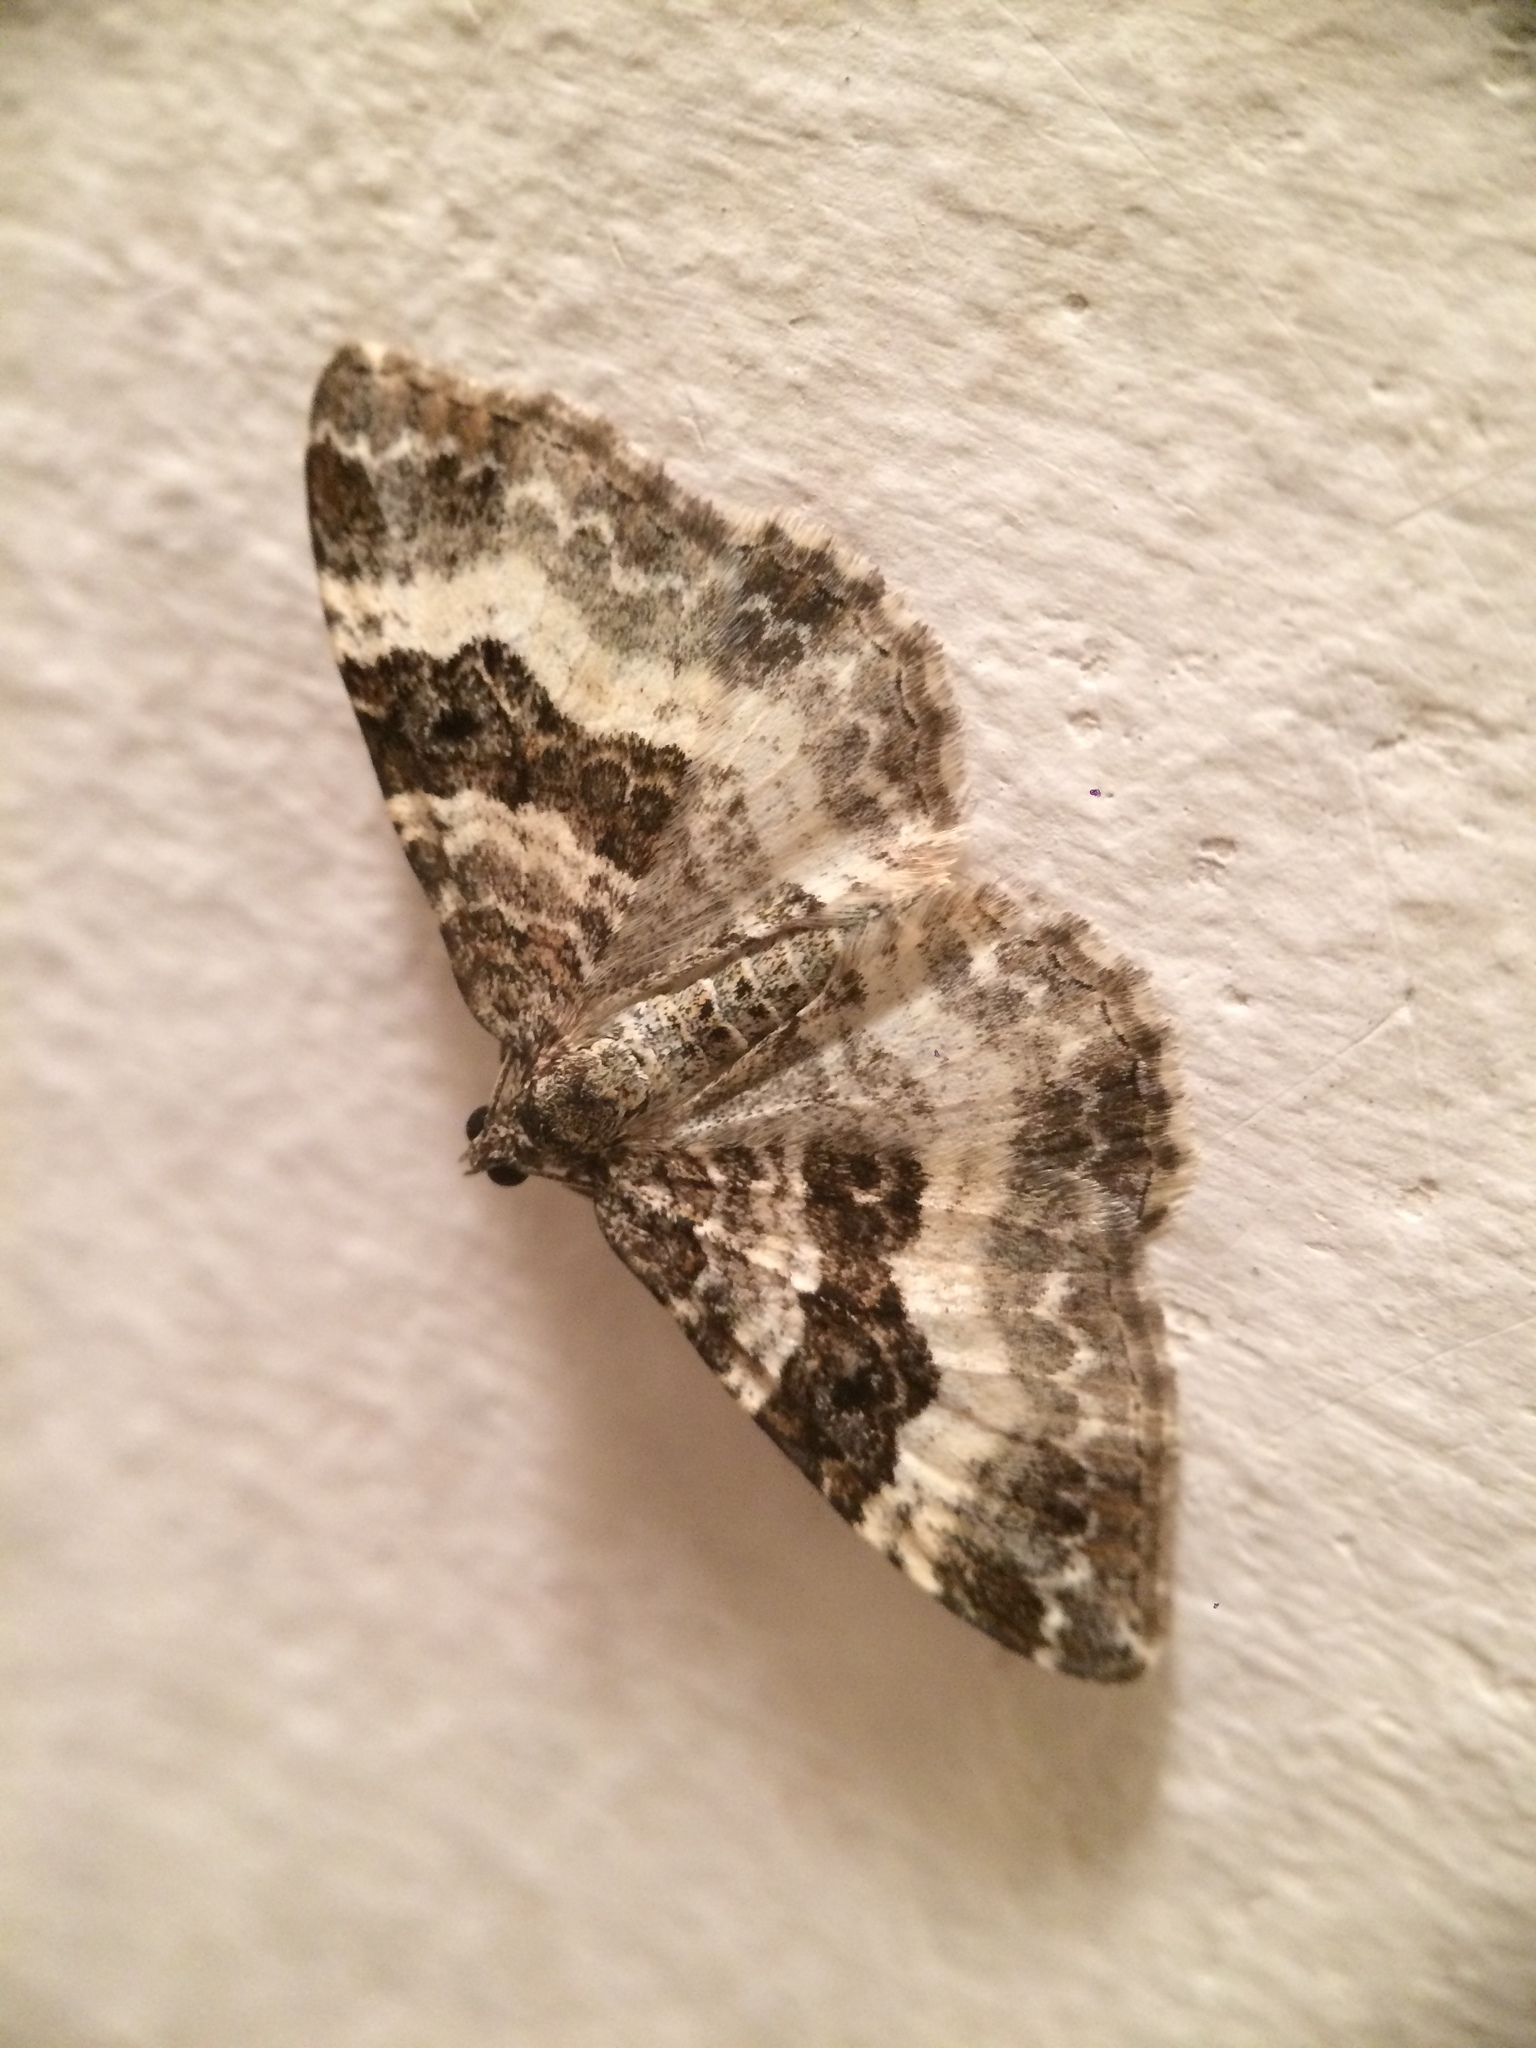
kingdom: Animalia
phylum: Arthropoda
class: Insecta
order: Lepidoptera
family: Geometridae
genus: Epirrhoe
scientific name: Epirrhoe alternata
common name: Common carpet
